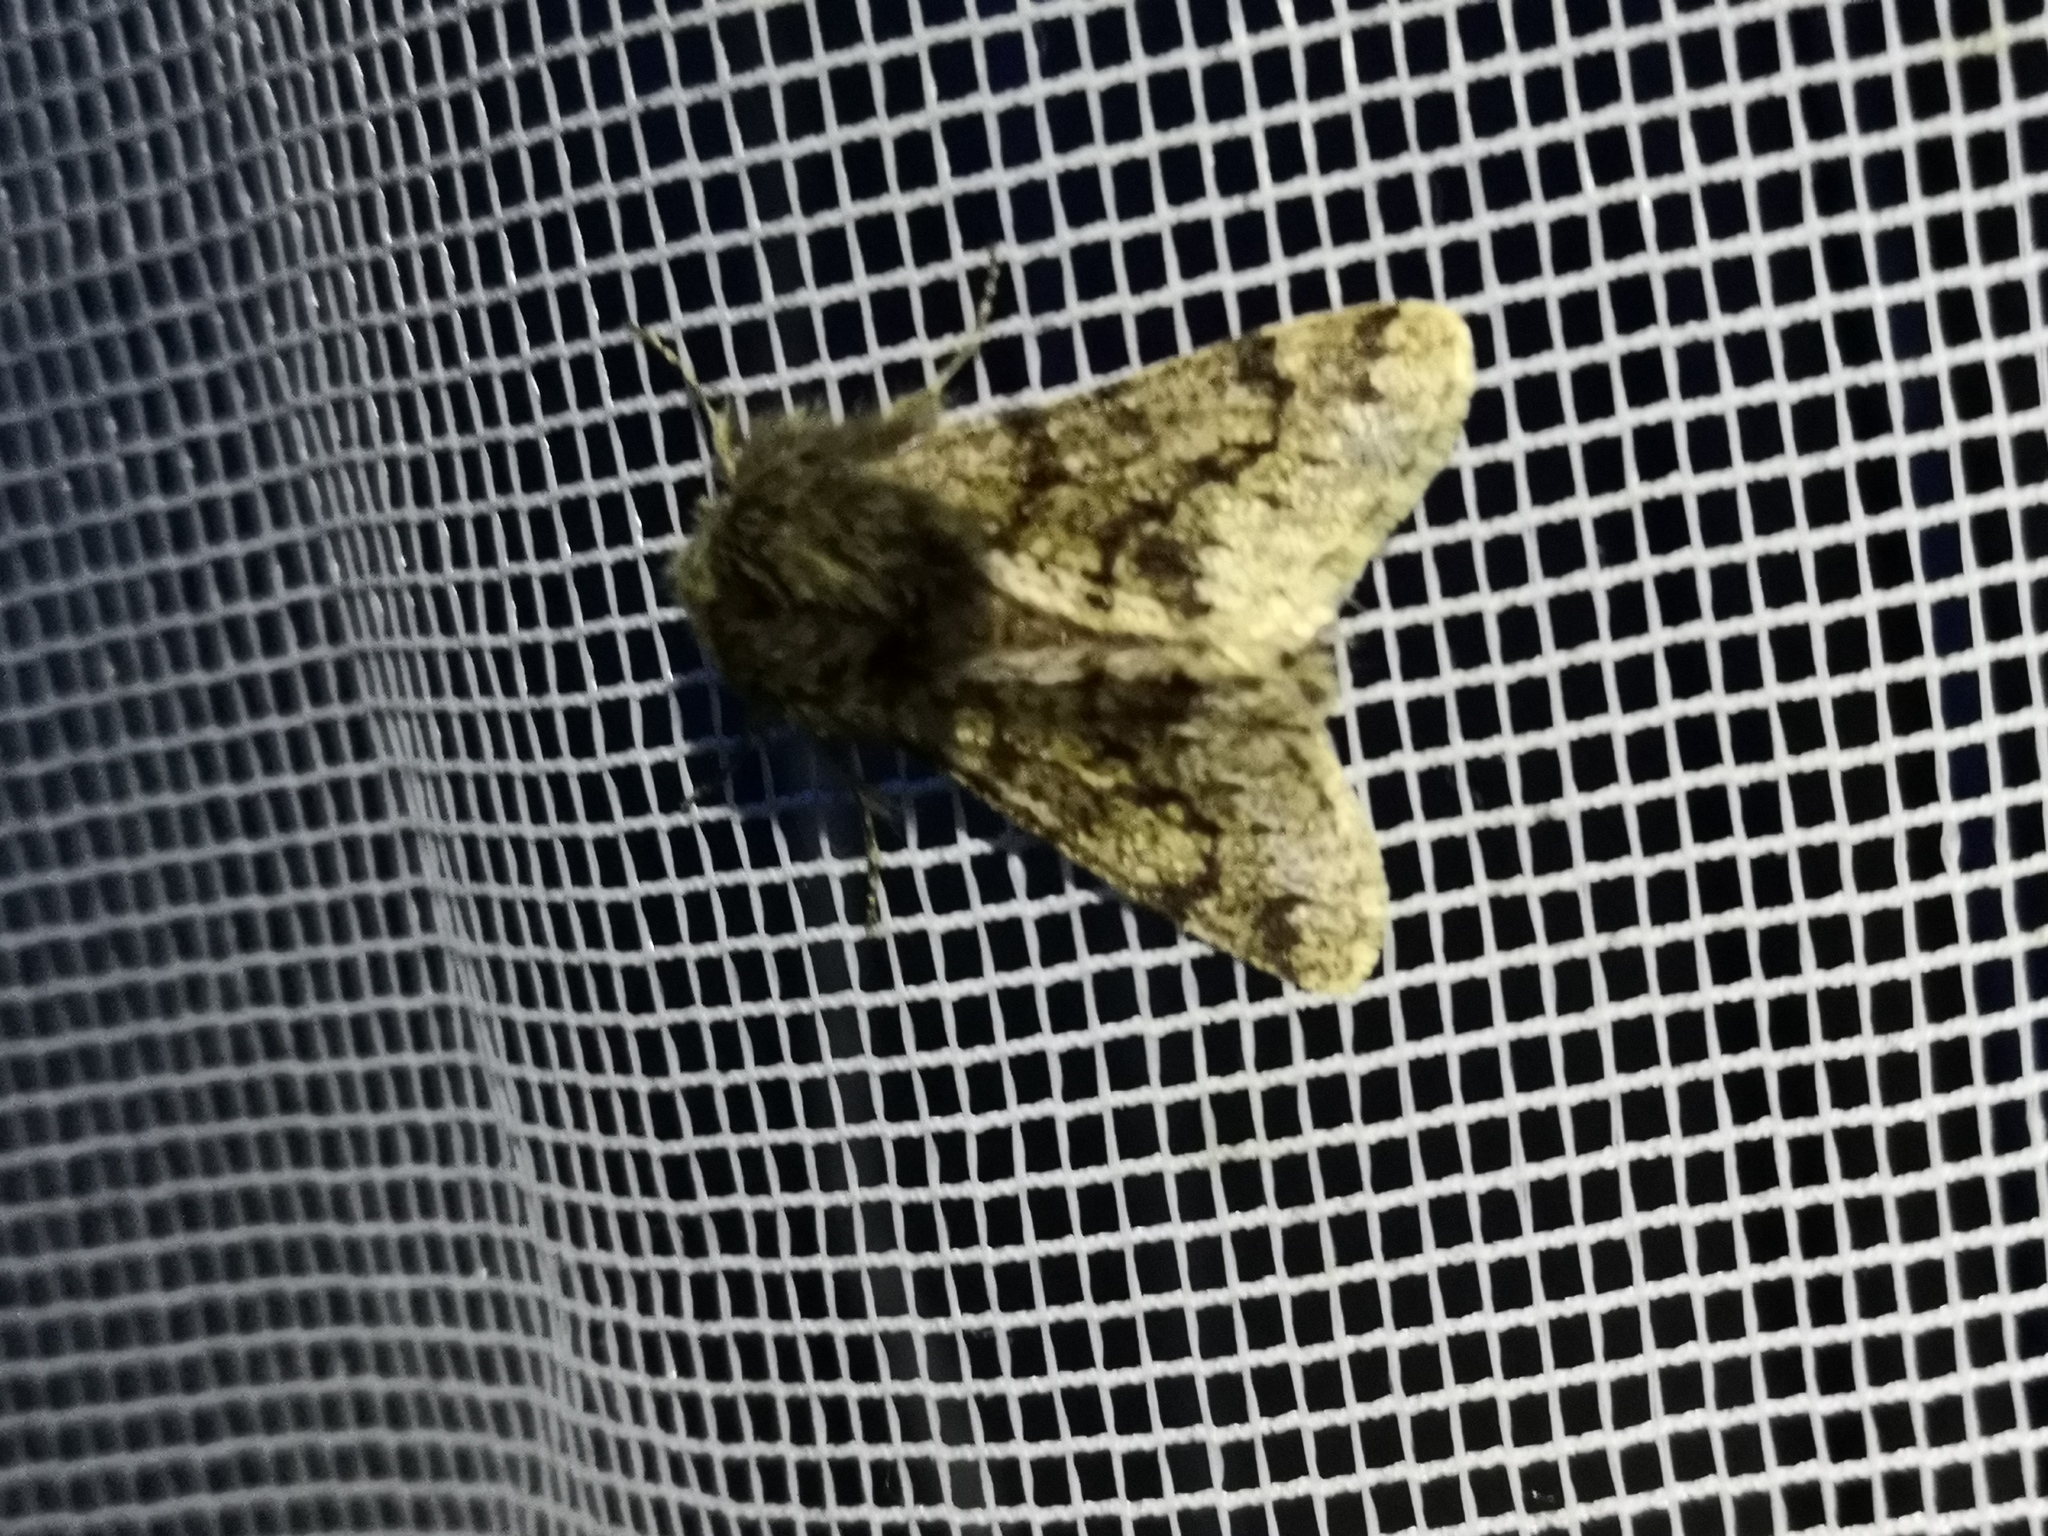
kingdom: Animalia
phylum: Arthropoda
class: Insecta
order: Lepidoptera
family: Geometridae
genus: Apocheima
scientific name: Apocheima hispidaria
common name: Small brindled beauty
